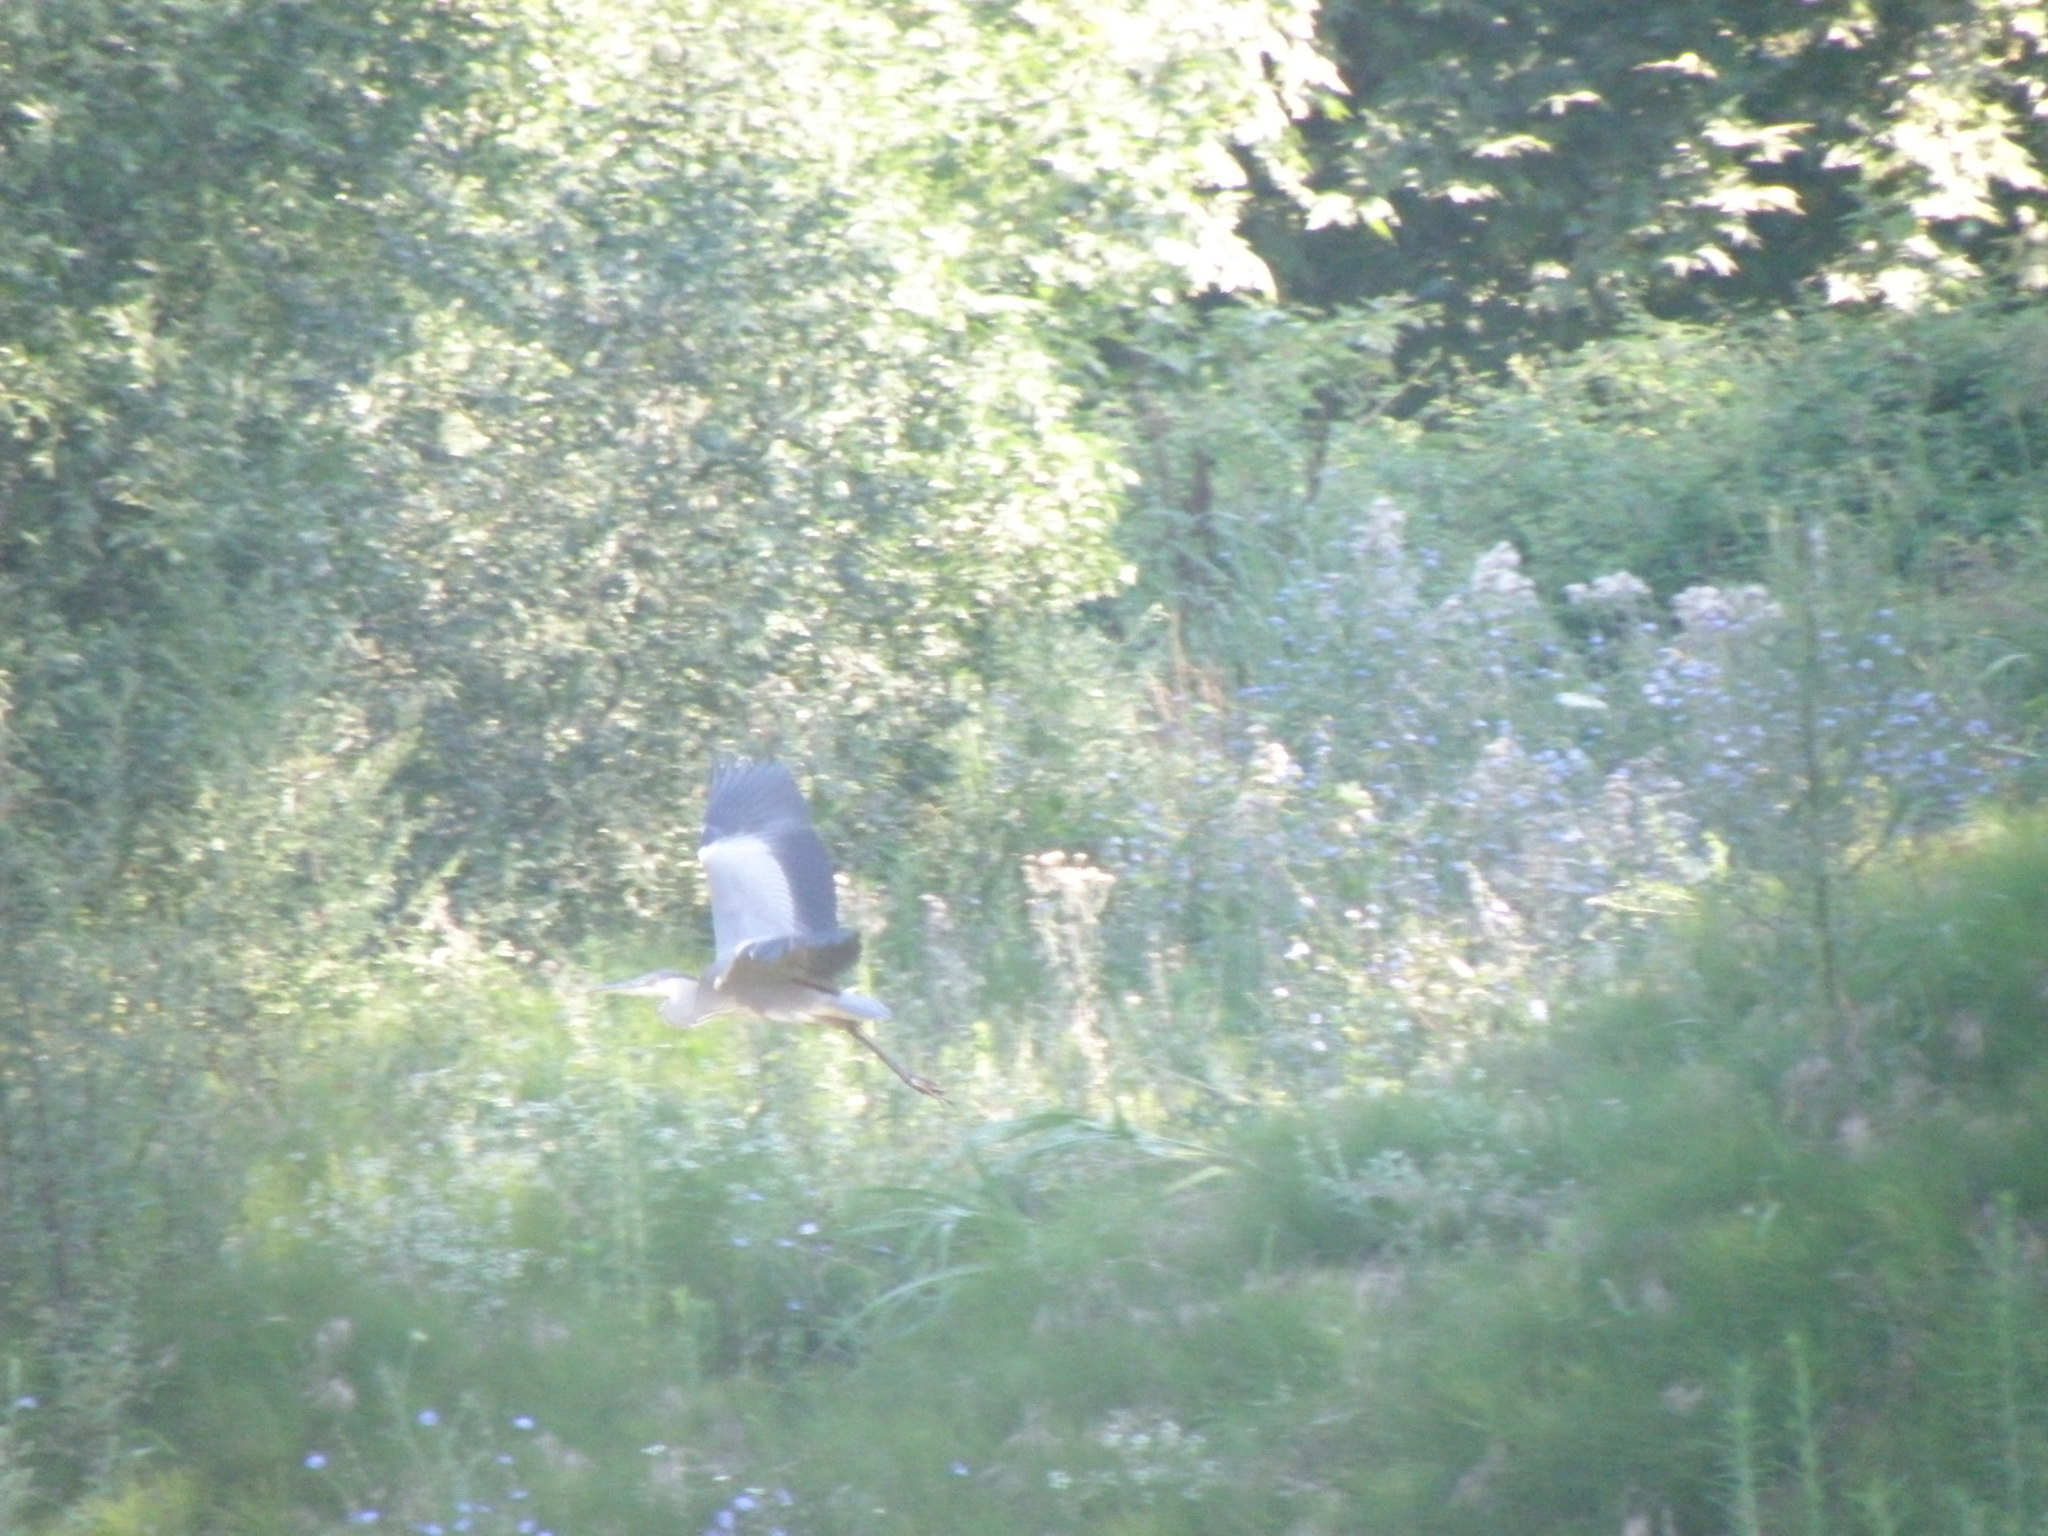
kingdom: Animalia
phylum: Chordata
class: Aves
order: Pelecaniformes
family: Ardeidae
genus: Ardea
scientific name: Ardea cinerea
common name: Grey heron
